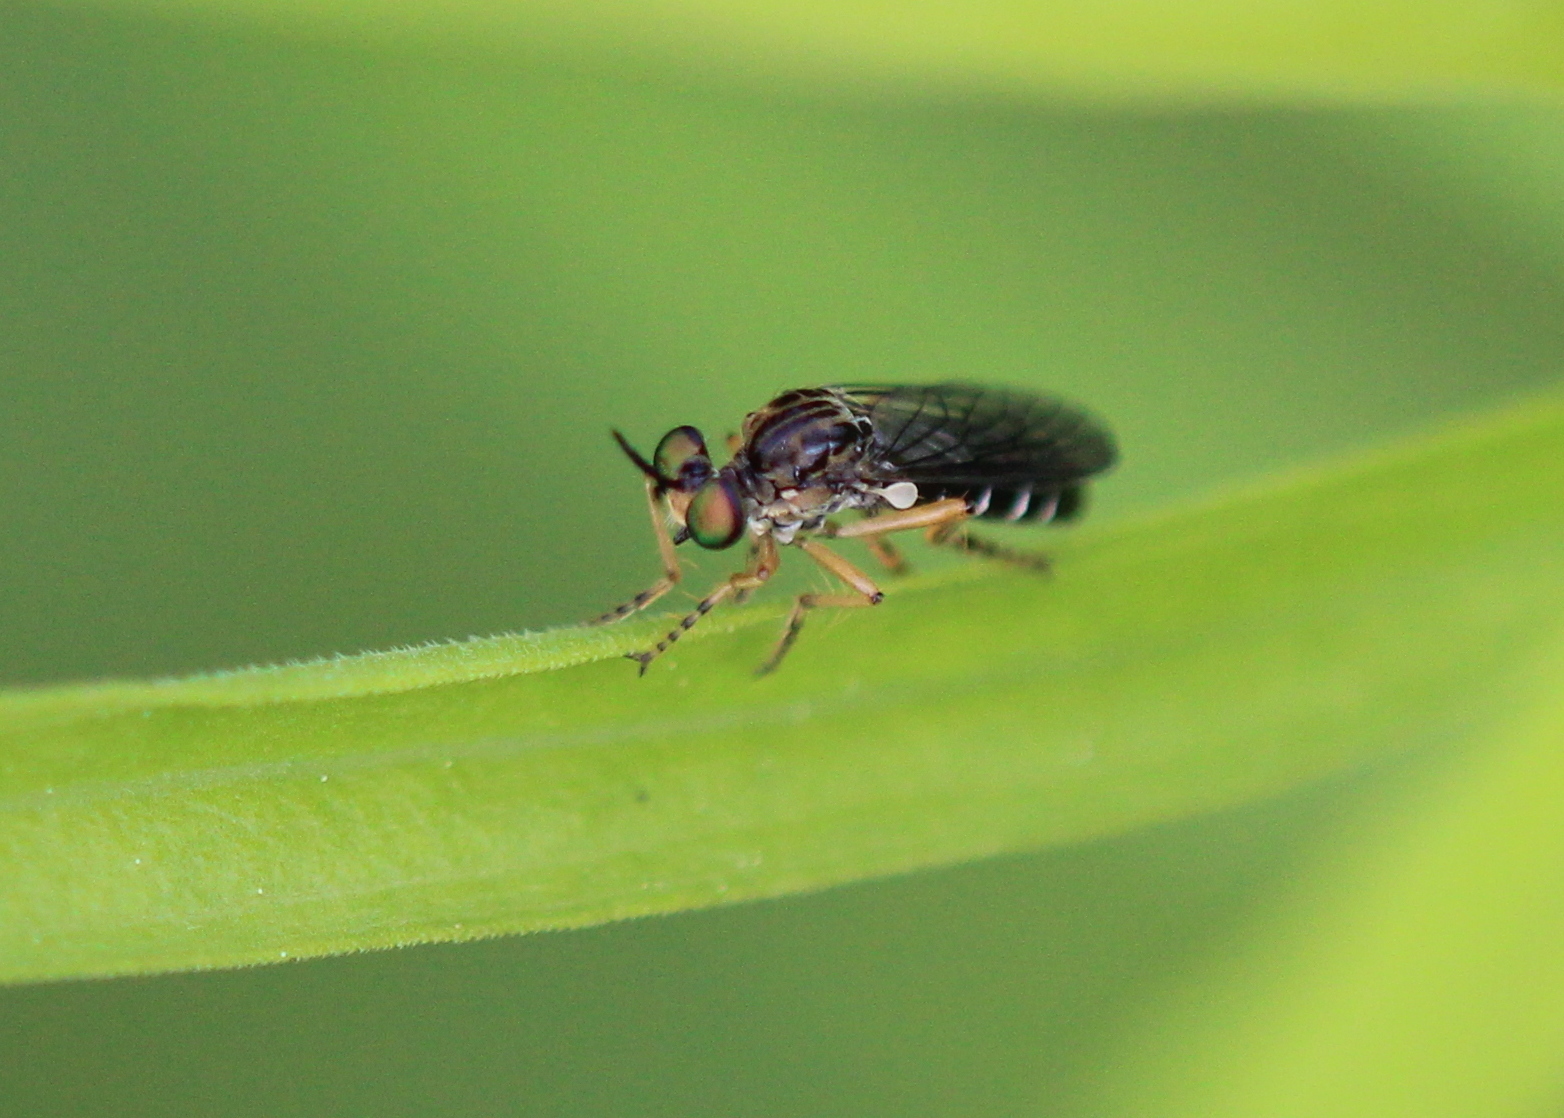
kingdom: Animalia
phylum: Arthropoda
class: Insecta
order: Diptera
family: Asilidae
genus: Taracticus
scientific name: Taracticus octopunctatus
